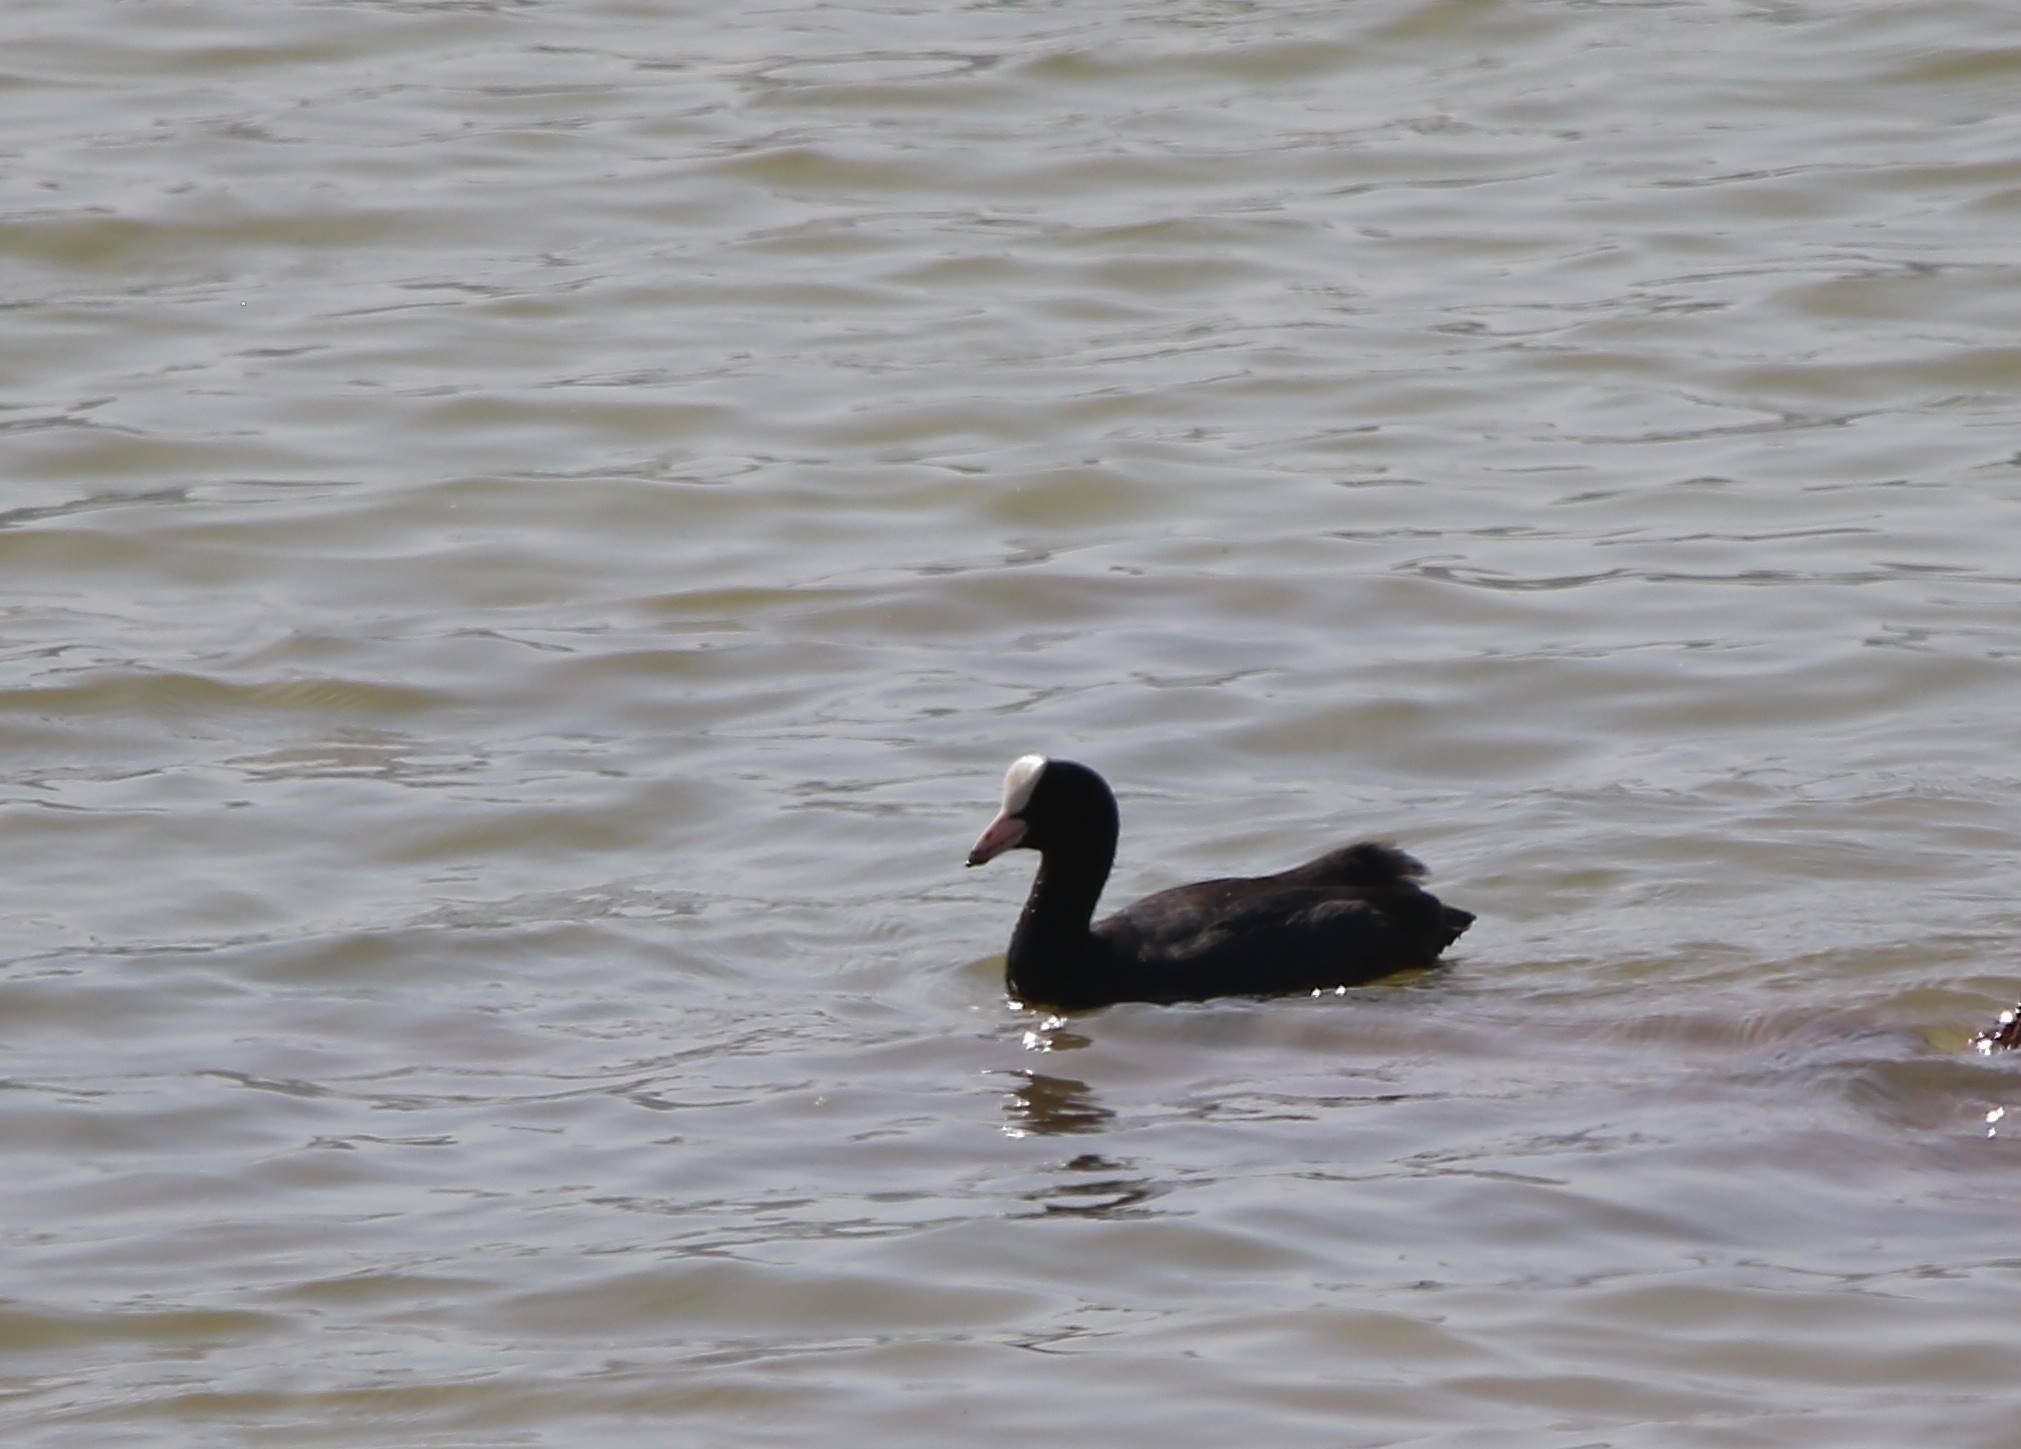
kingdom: Animalia
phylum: Chordata
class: Aves
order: Gruiformes
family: Rallidae
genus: Fulica
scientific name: Fulica atra
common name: Eurasian coot
